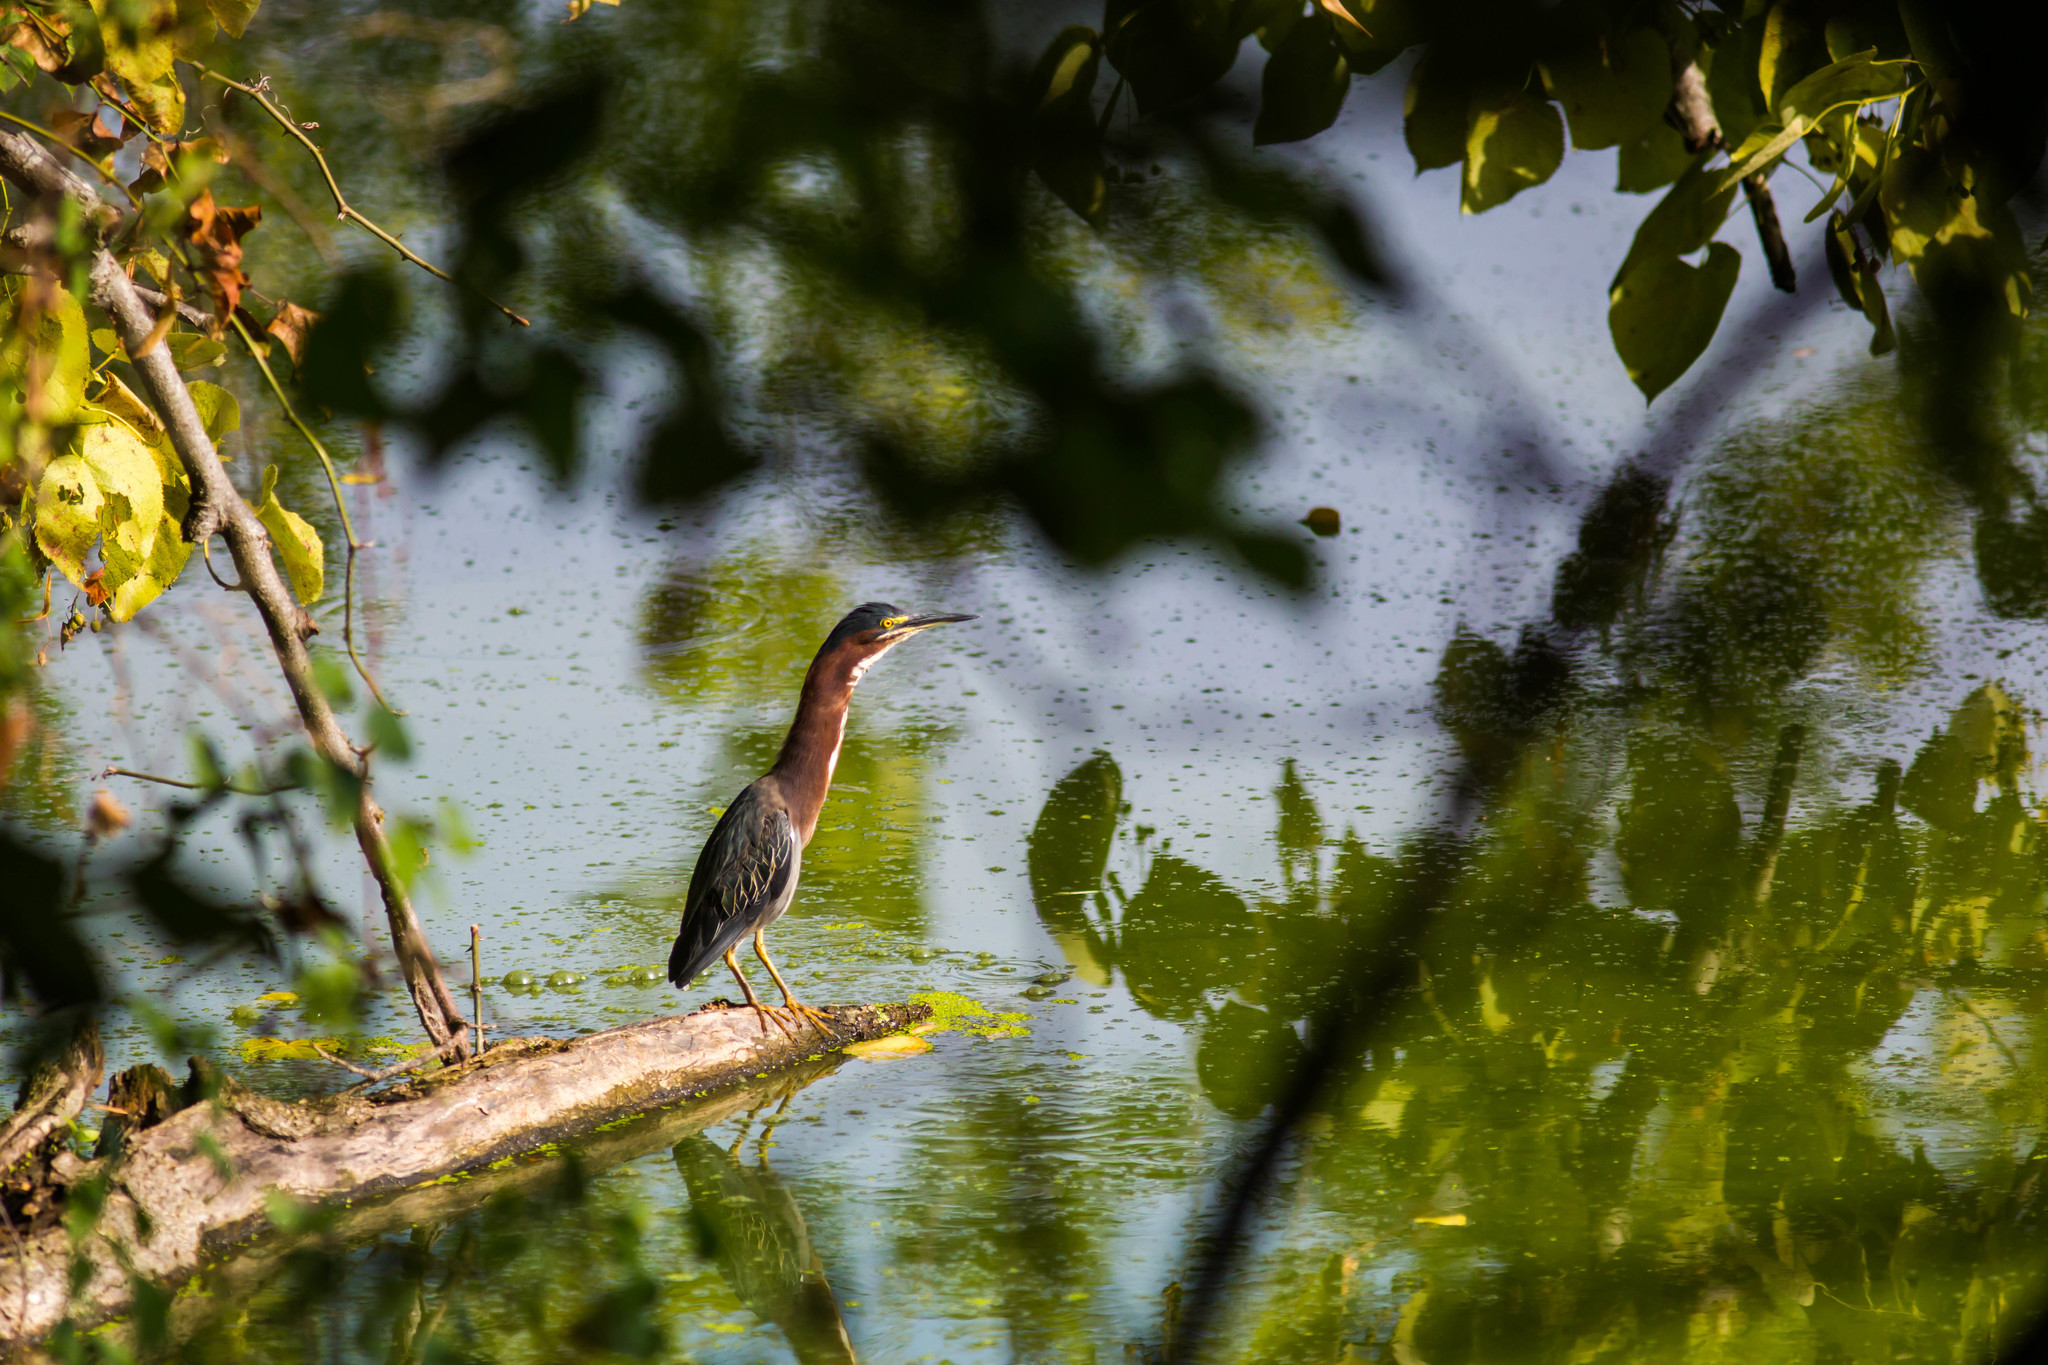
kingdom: Animalia
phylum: Chordata
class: Aves
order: Pelecaniformes
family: Ardeidae
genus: Butorides
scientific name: Butorides virescens
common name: Green heron
